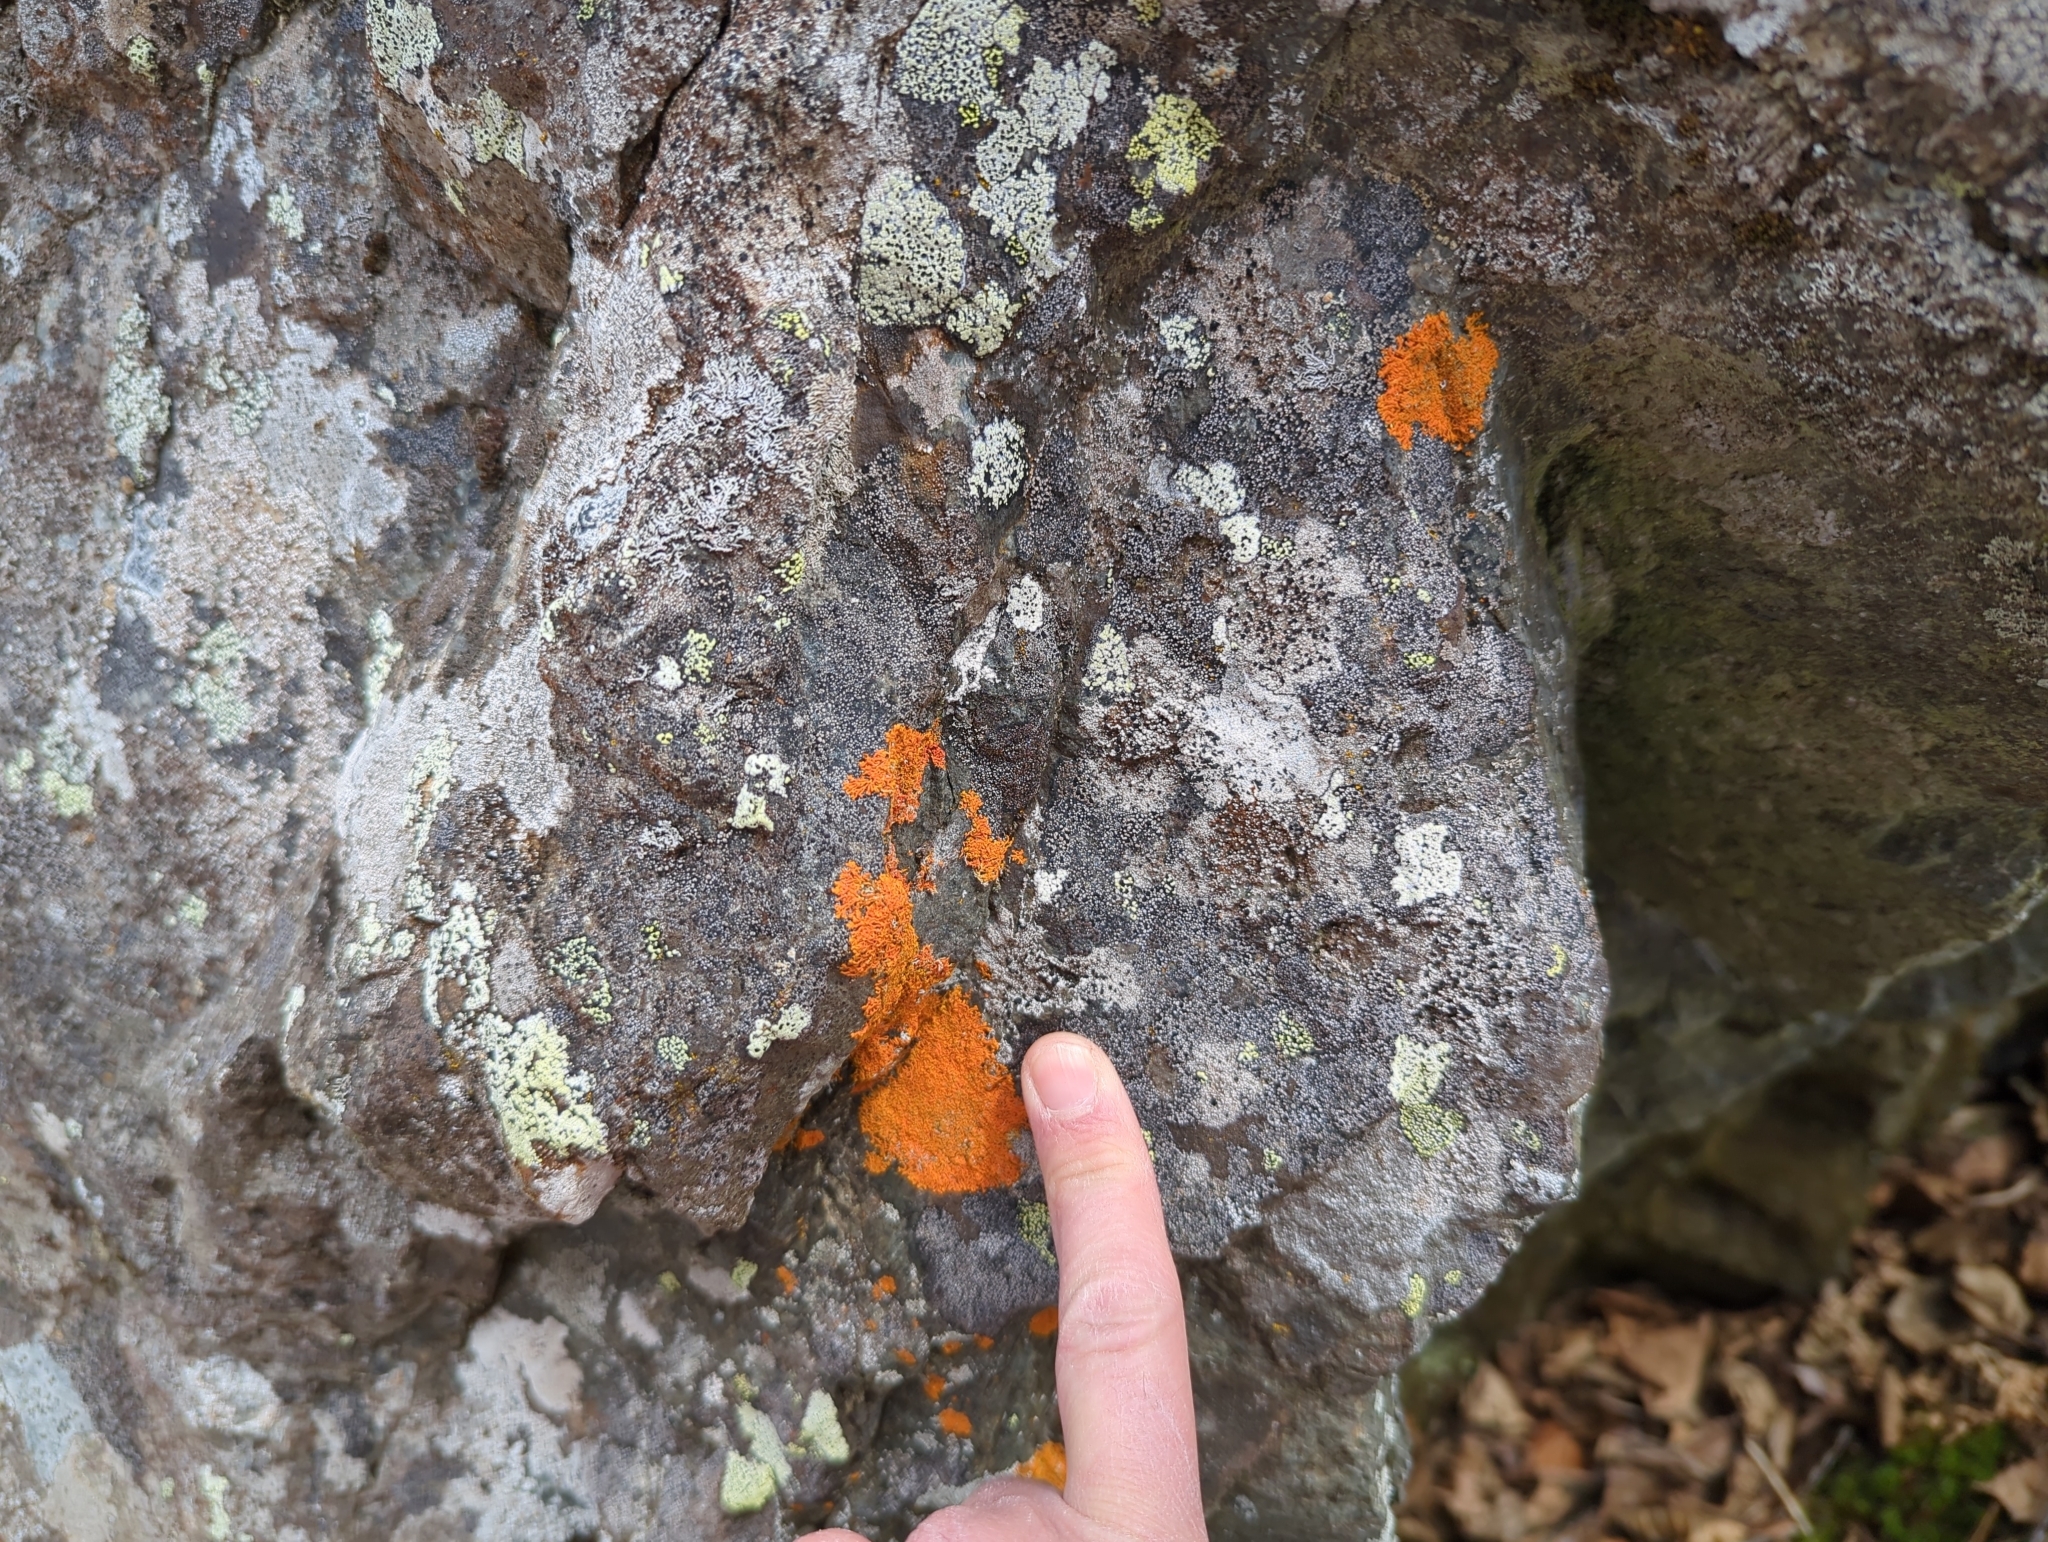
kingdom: Fungi
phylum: Ascomycota
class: Lecanoromycetes
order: Teloschistales
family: Teloschistaceae
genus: Rusavskia
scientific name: Rusavskia sorediata
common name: Sugared sunburst lichen
